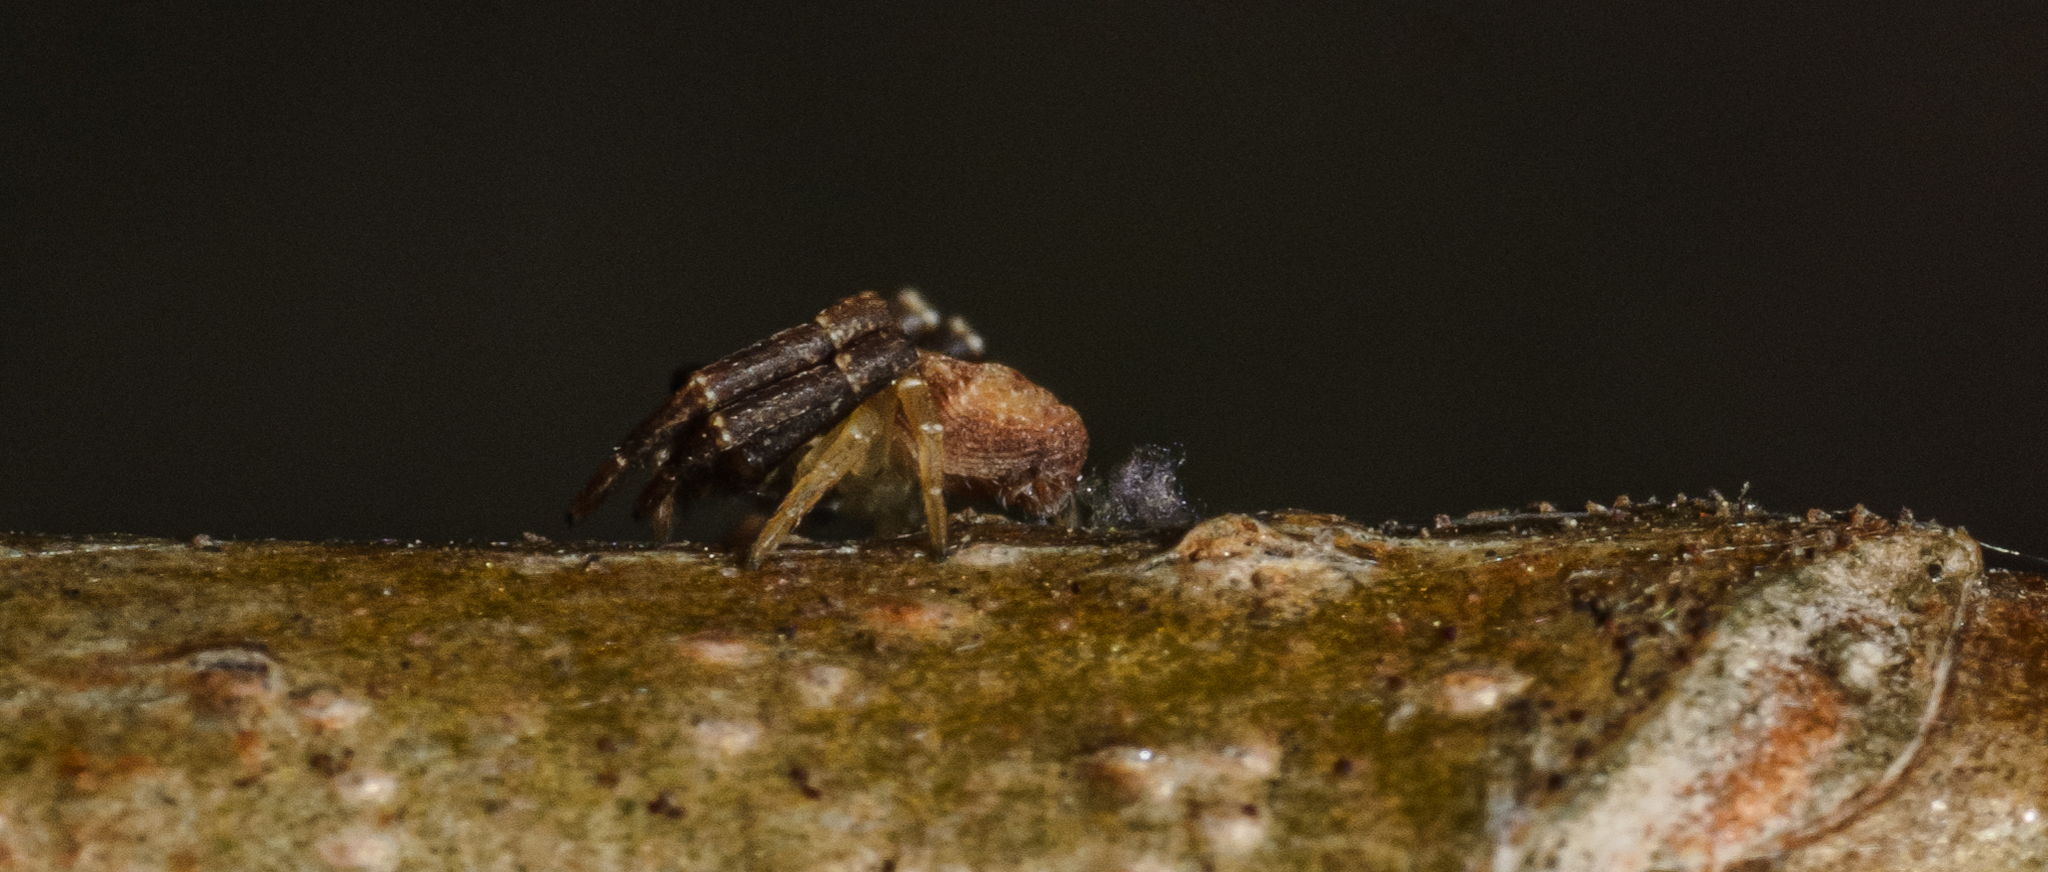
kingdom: Animalia
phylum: Arthropoda
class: Arachnida
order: Araneae
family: Thomisidae
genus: Pistius
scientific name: Pistius truncatus
